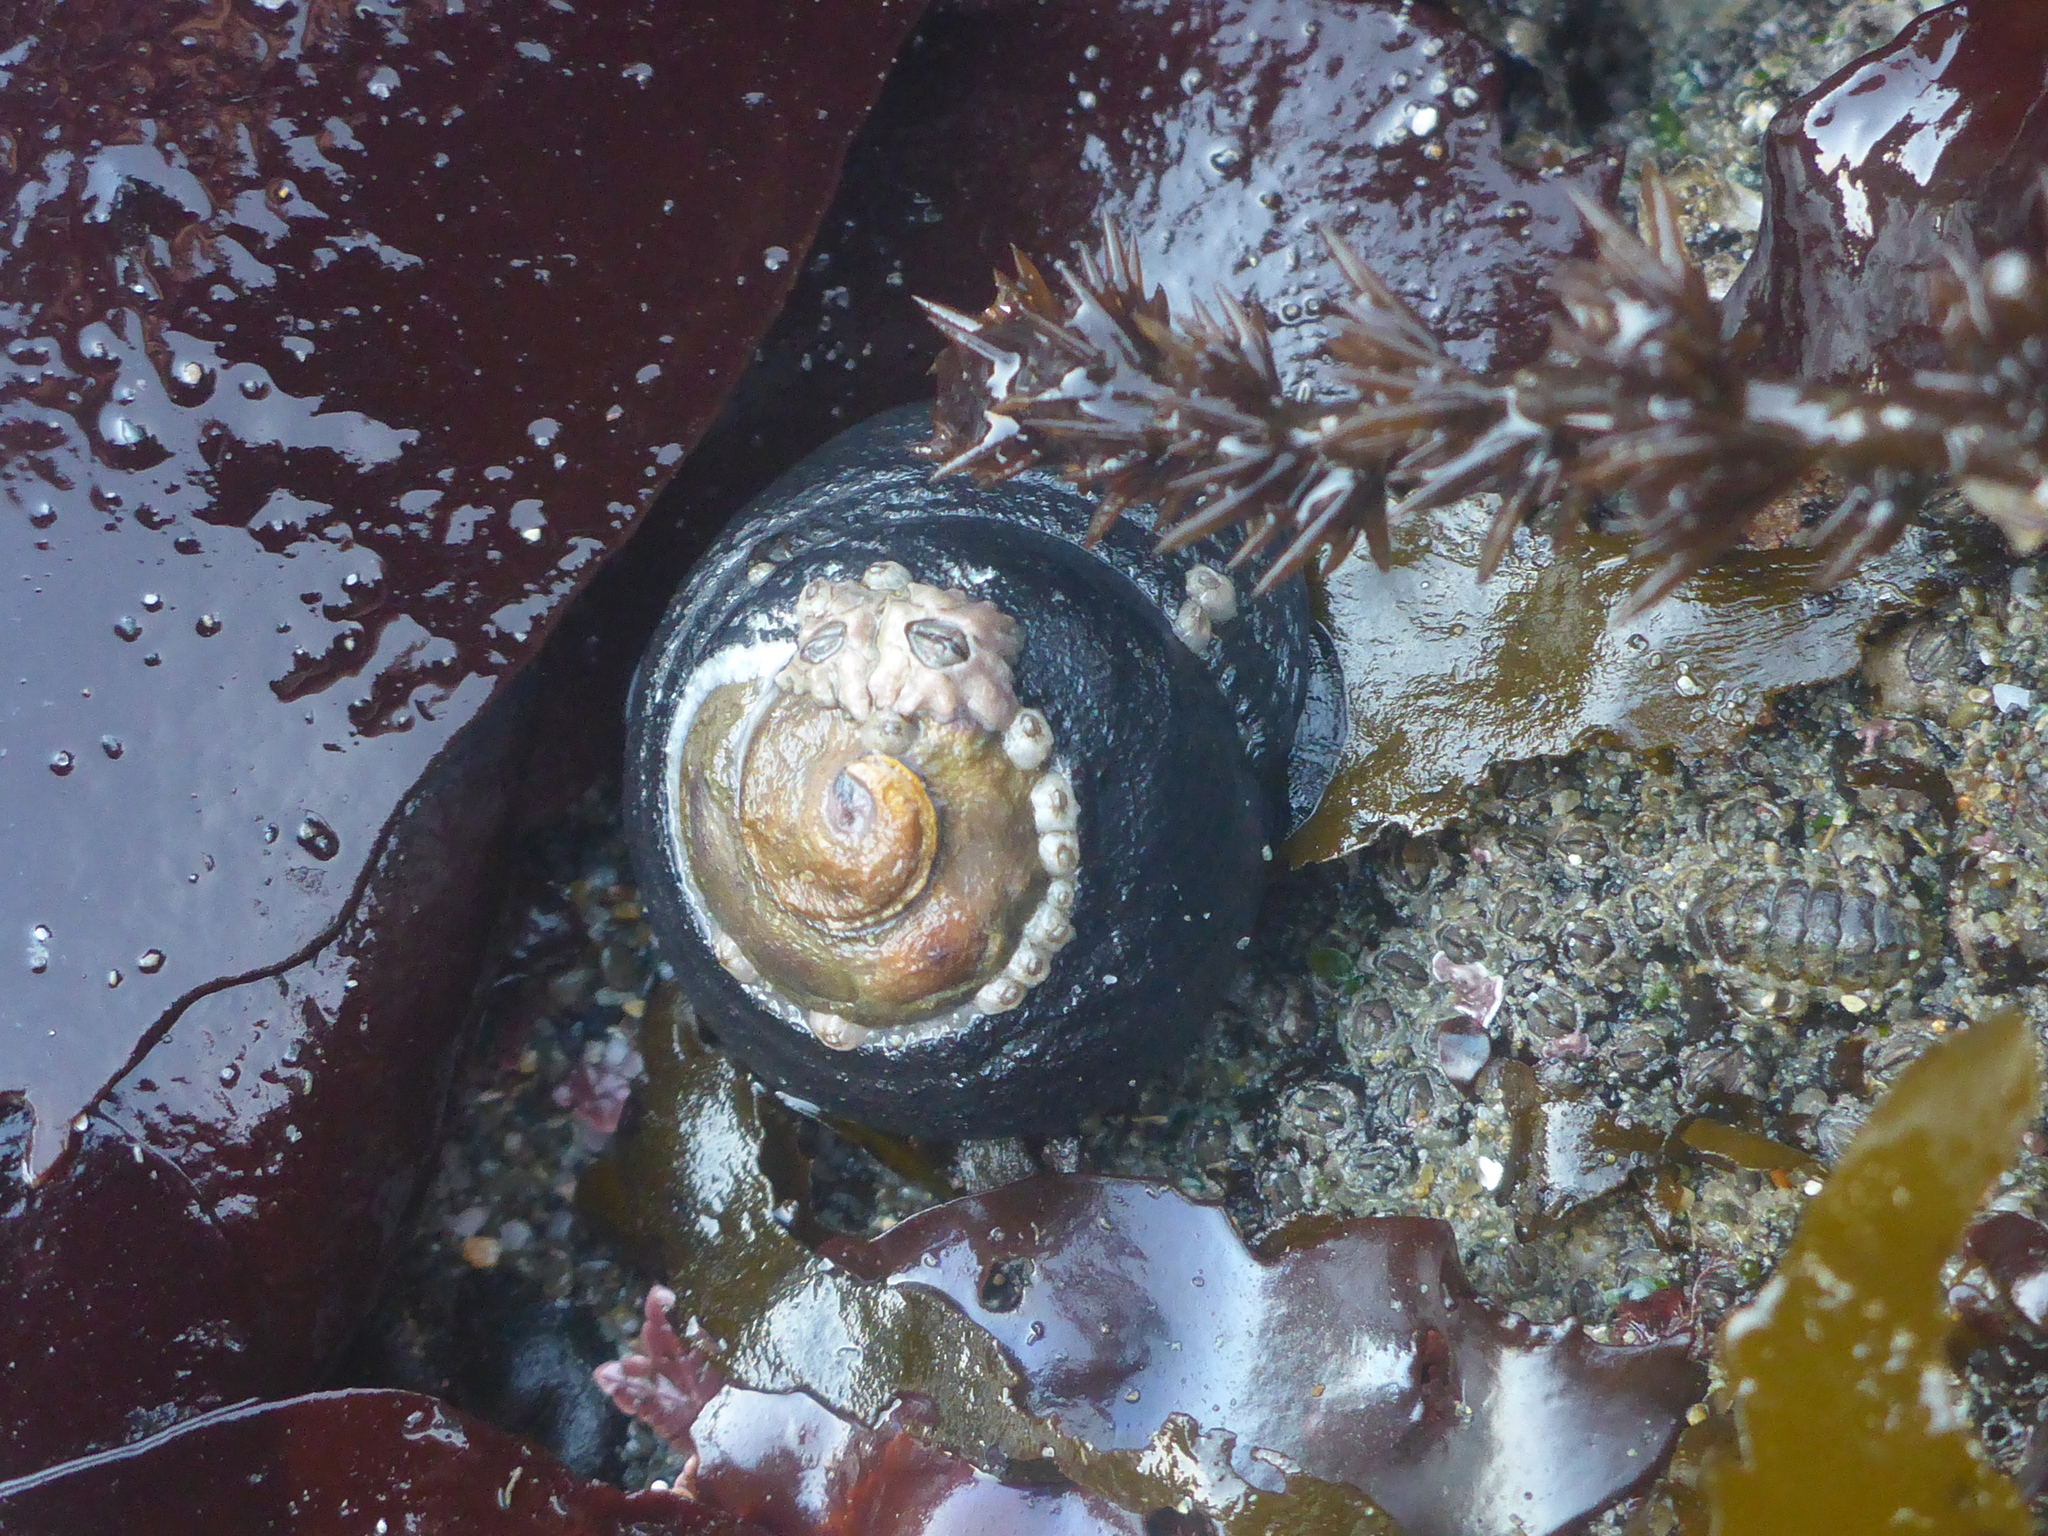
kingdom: Animalia
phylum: Mollusca
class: Gastropoda
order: Trochida
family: Tegulidae
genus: Tegula
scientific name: Tegula funebralis
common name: Black tegula
